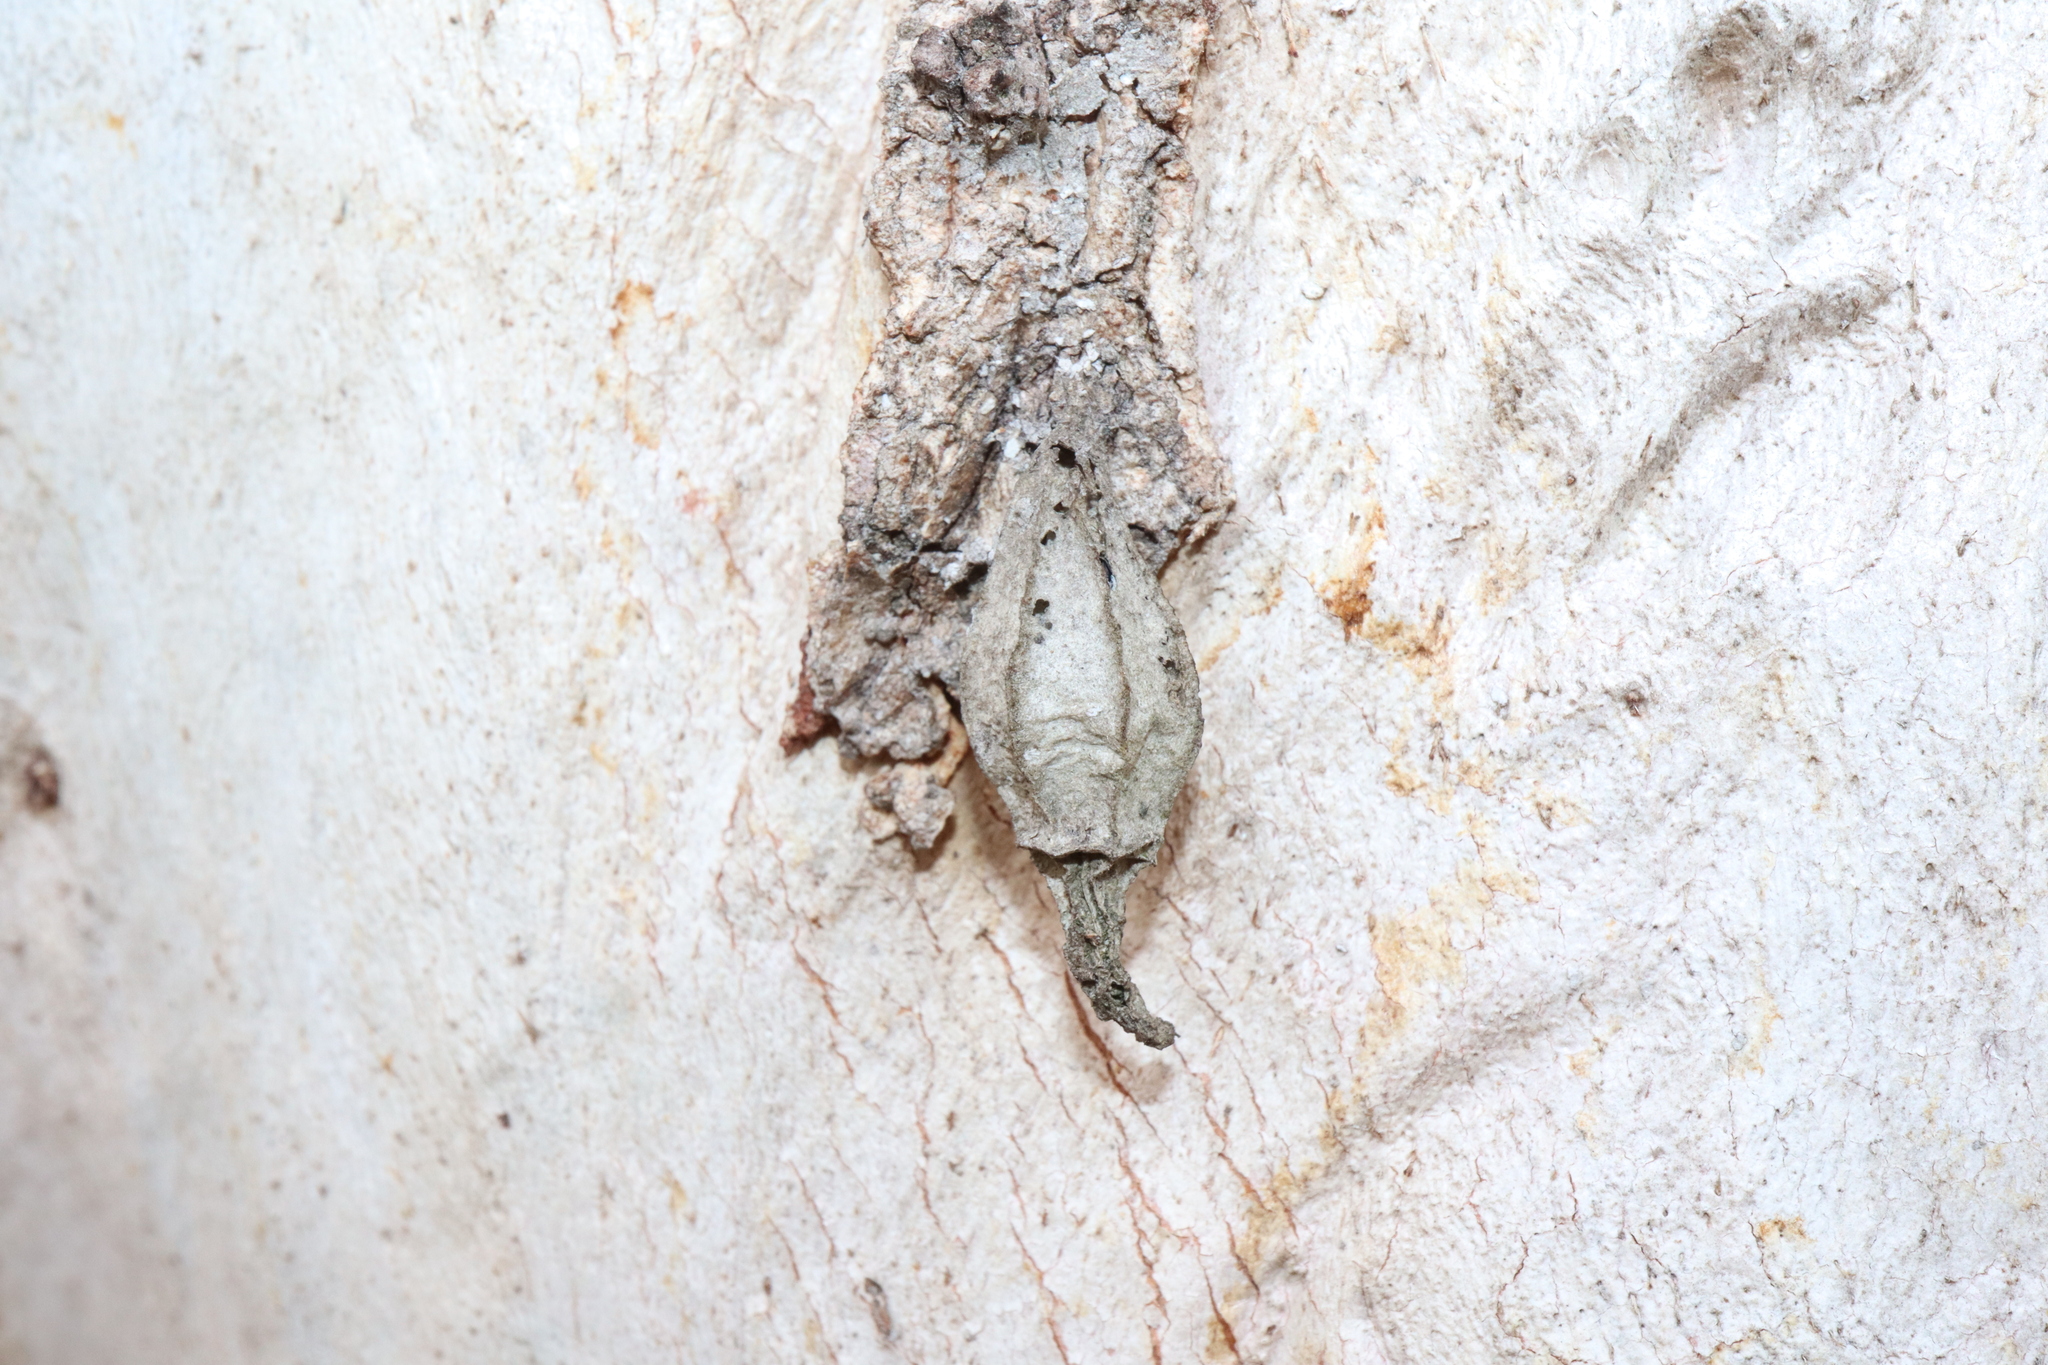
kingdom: Animalia
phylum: Arthropoda
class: Insecta
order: Lepidoptera
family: Psychidae
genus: Hyalarcta
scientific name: Hyalarcta nigrescens
